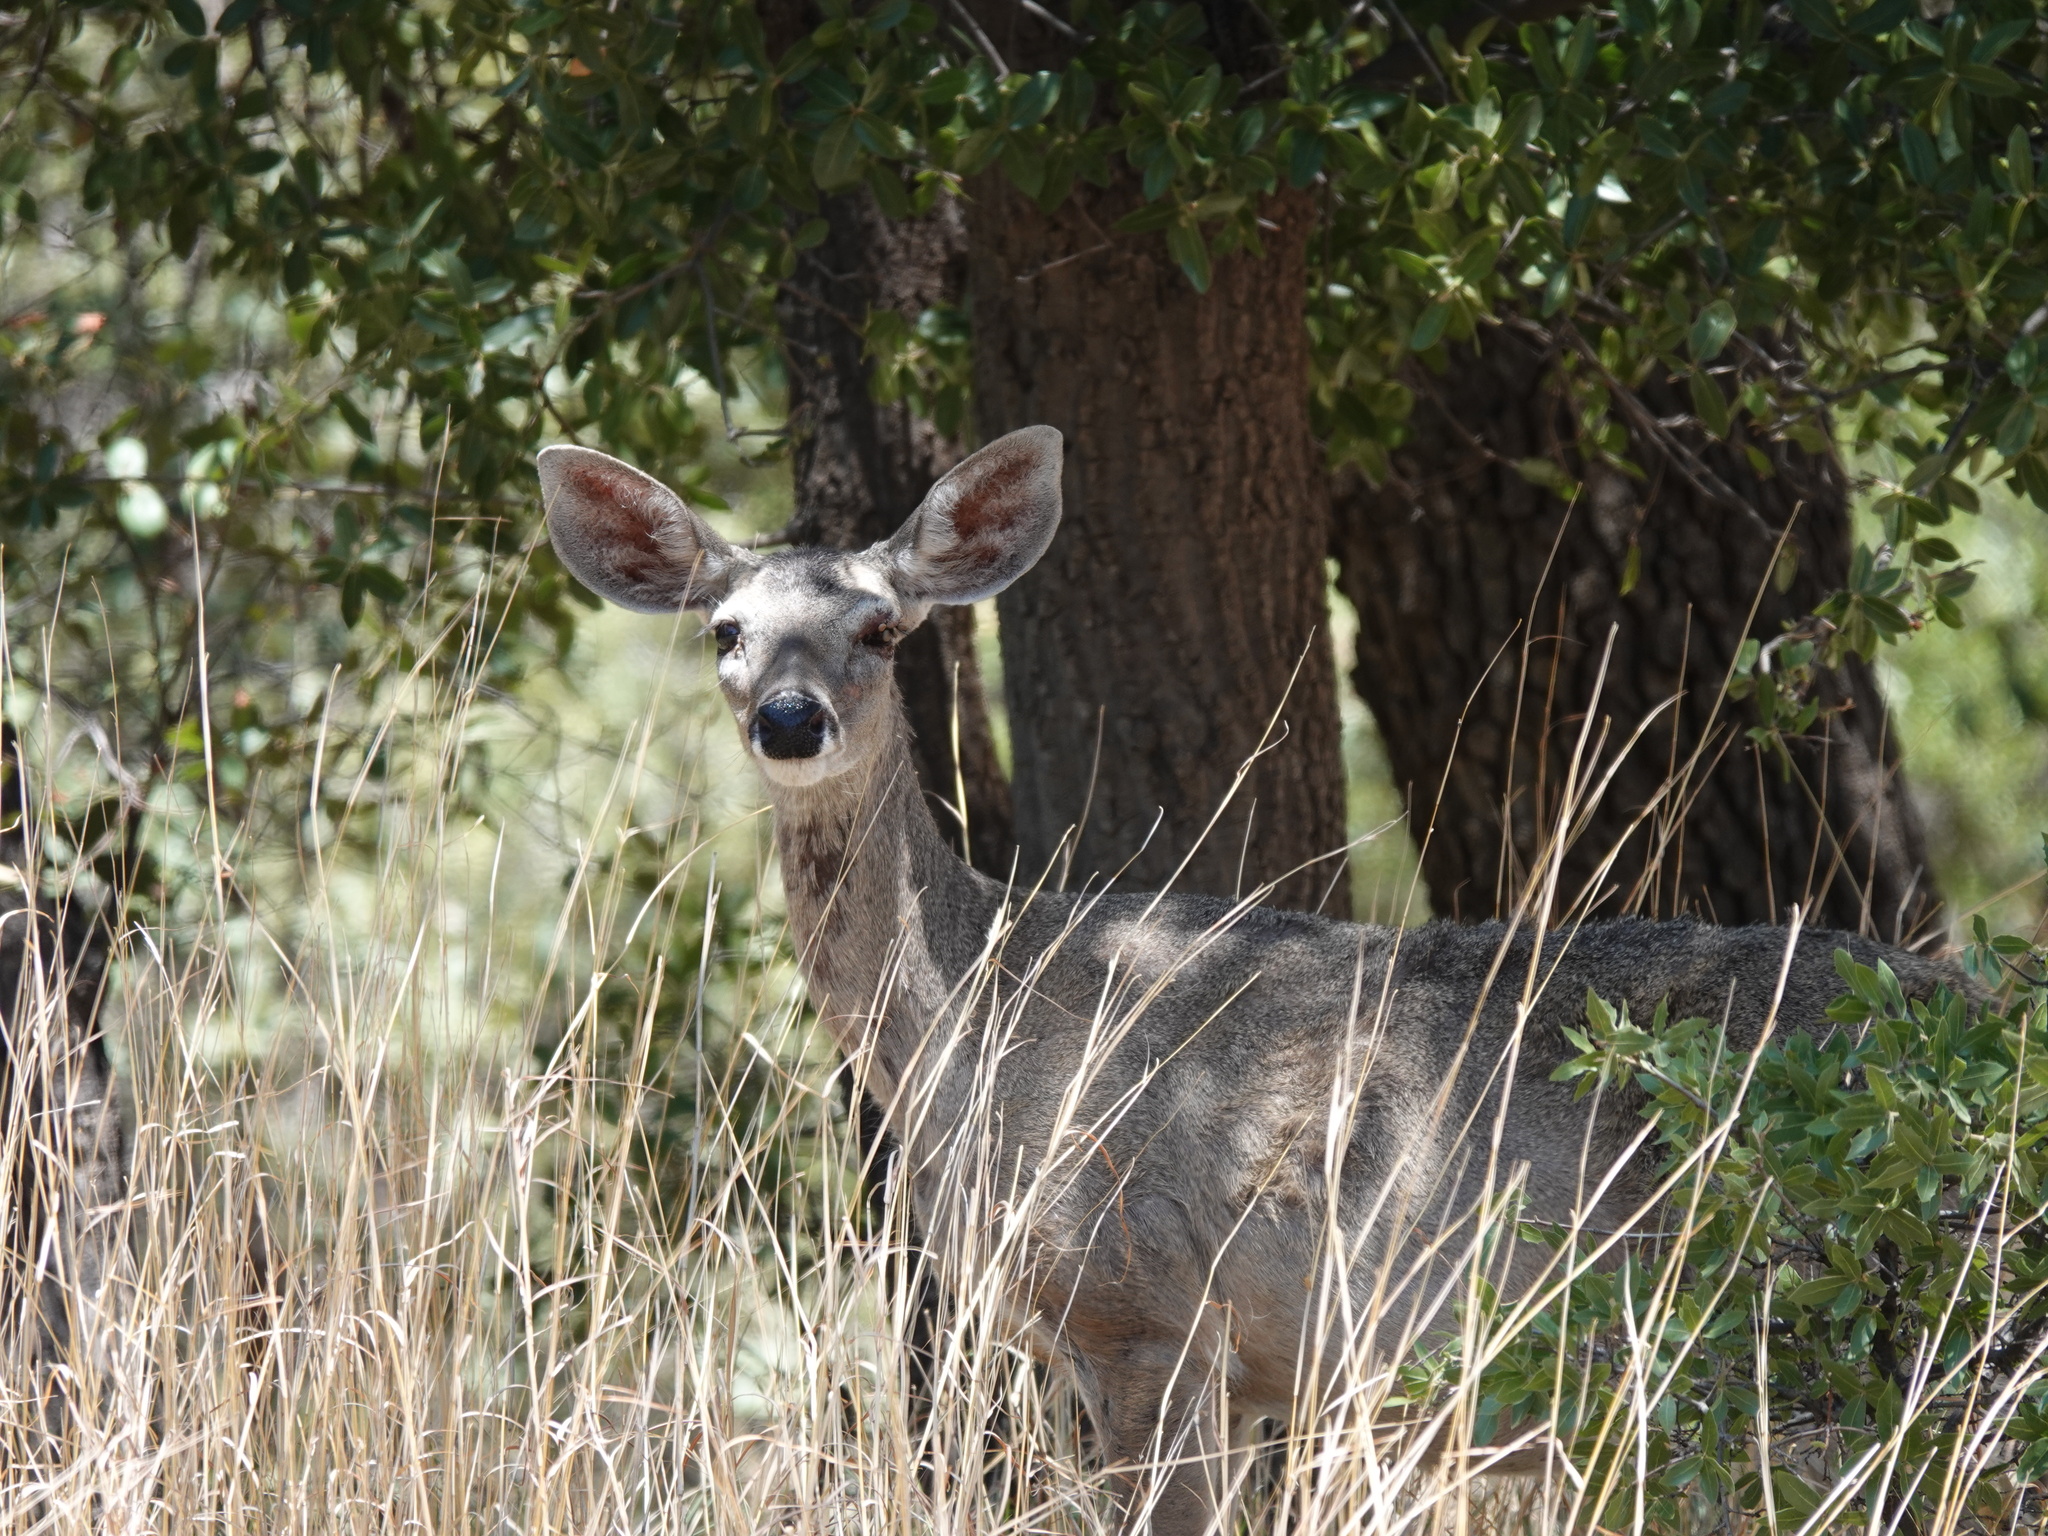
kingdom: Animalia
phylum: Chordata
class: Mammalia
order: Artiodactyla
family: Cervidae
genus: Odocoileus
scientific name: Odocoileus virginianus
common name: White-tailed deer
